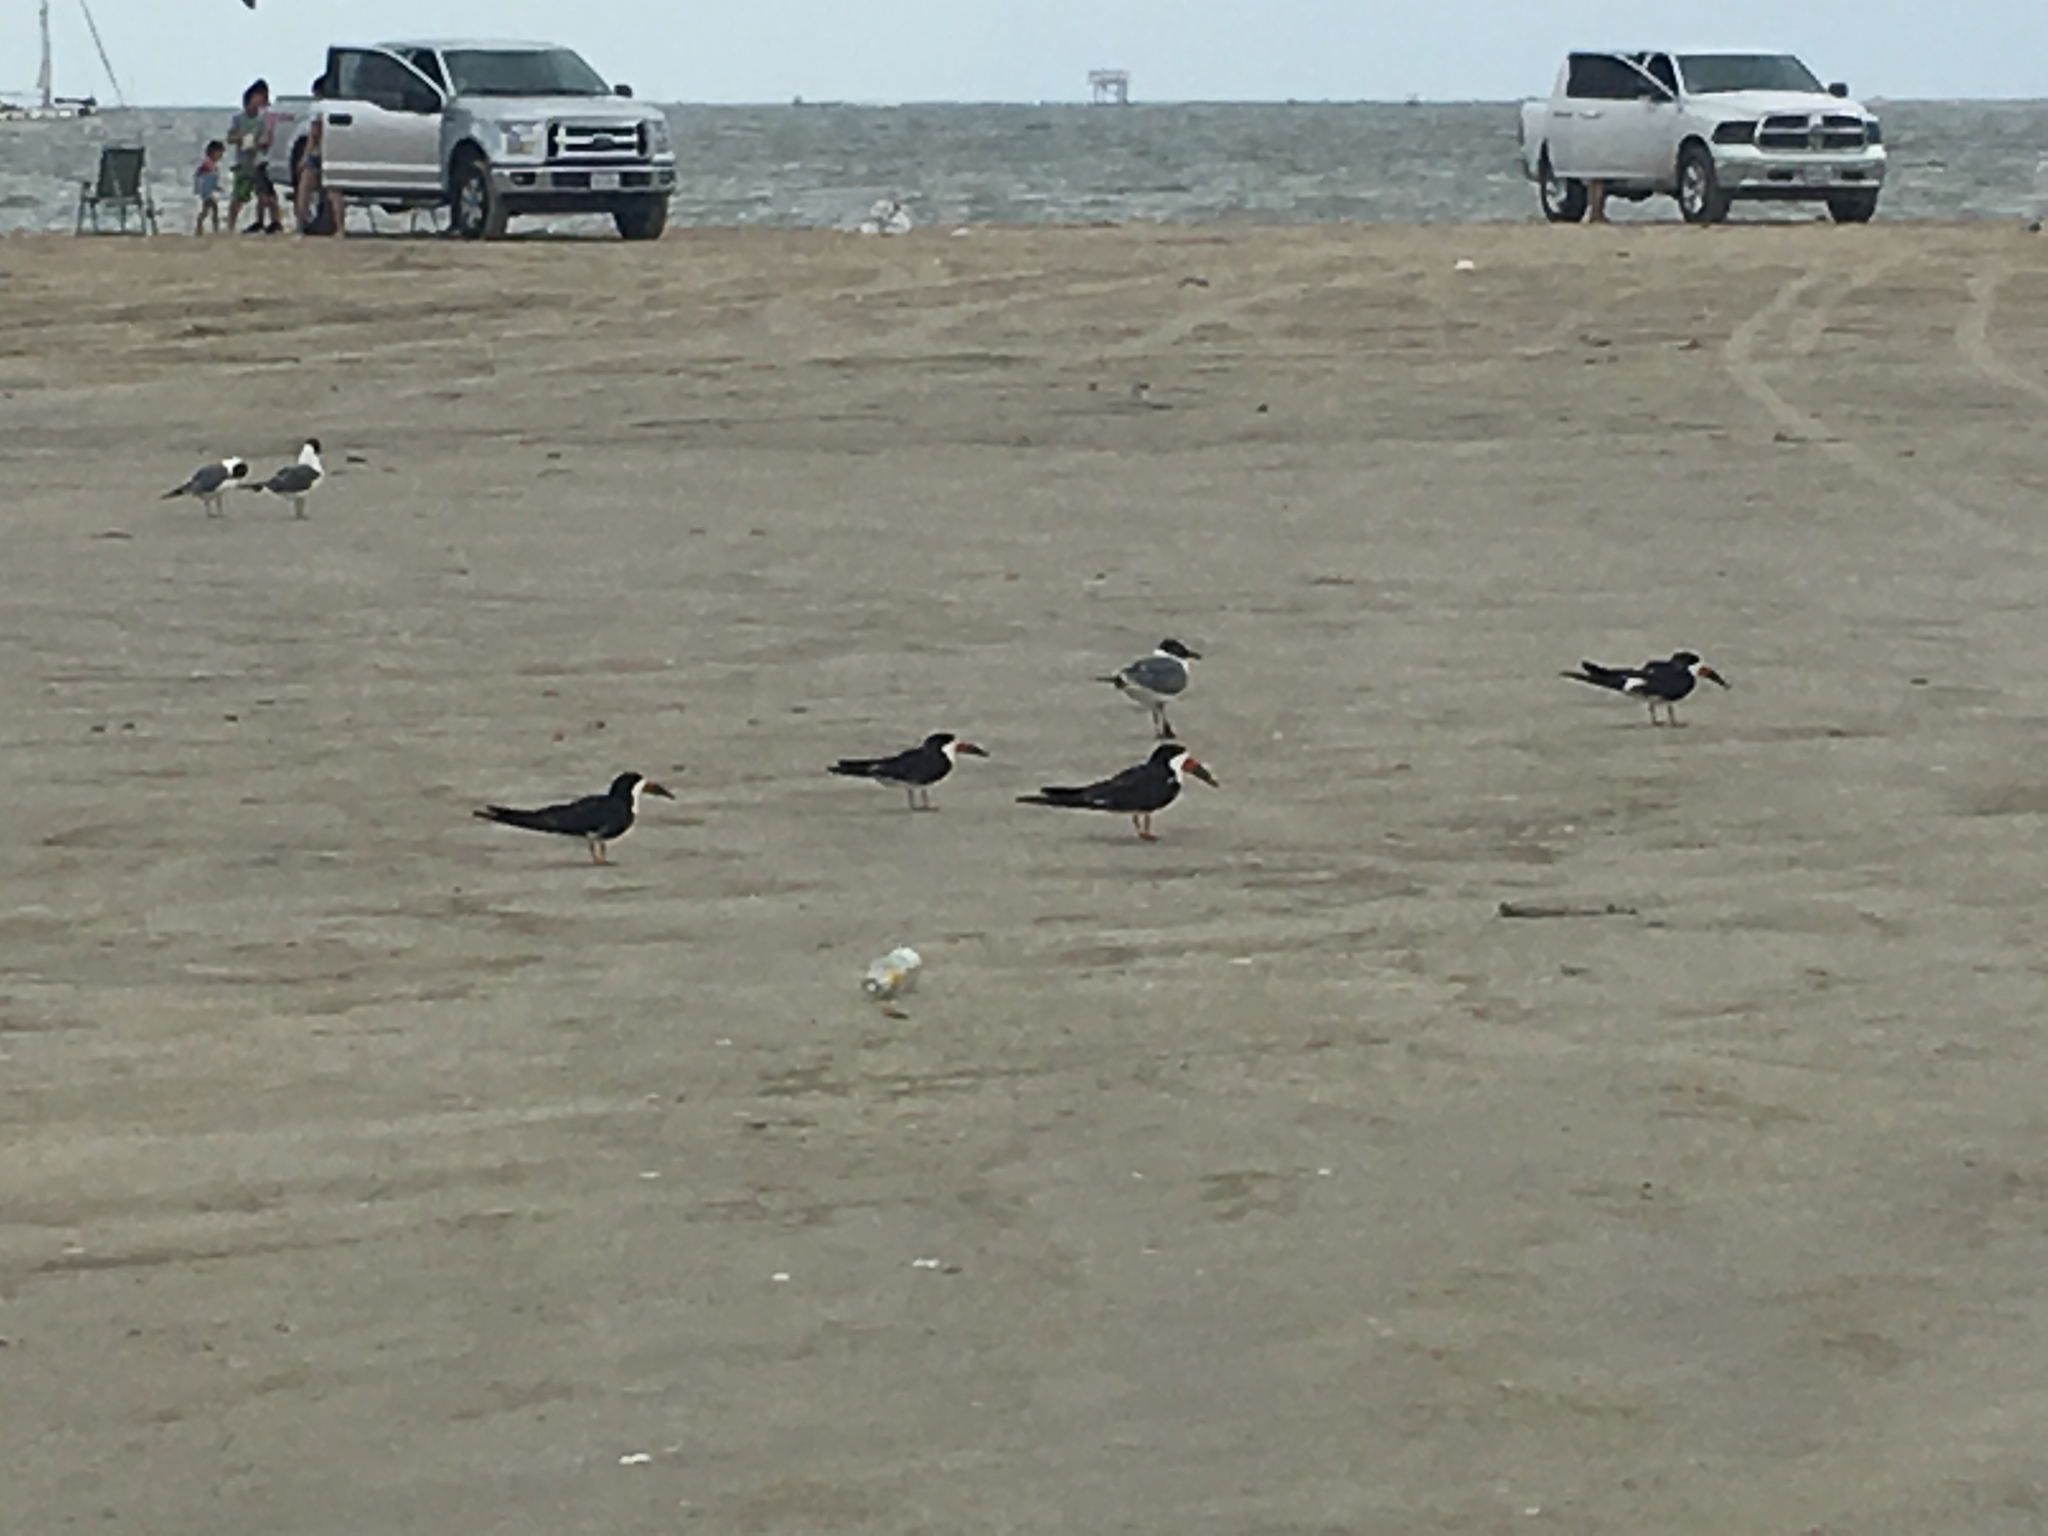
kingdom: Animalia
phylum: Chordata
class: Aves
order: Charadriiformes
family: Laridae
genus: Rynchops
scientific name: Rynchops niger
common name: Black skimmer
